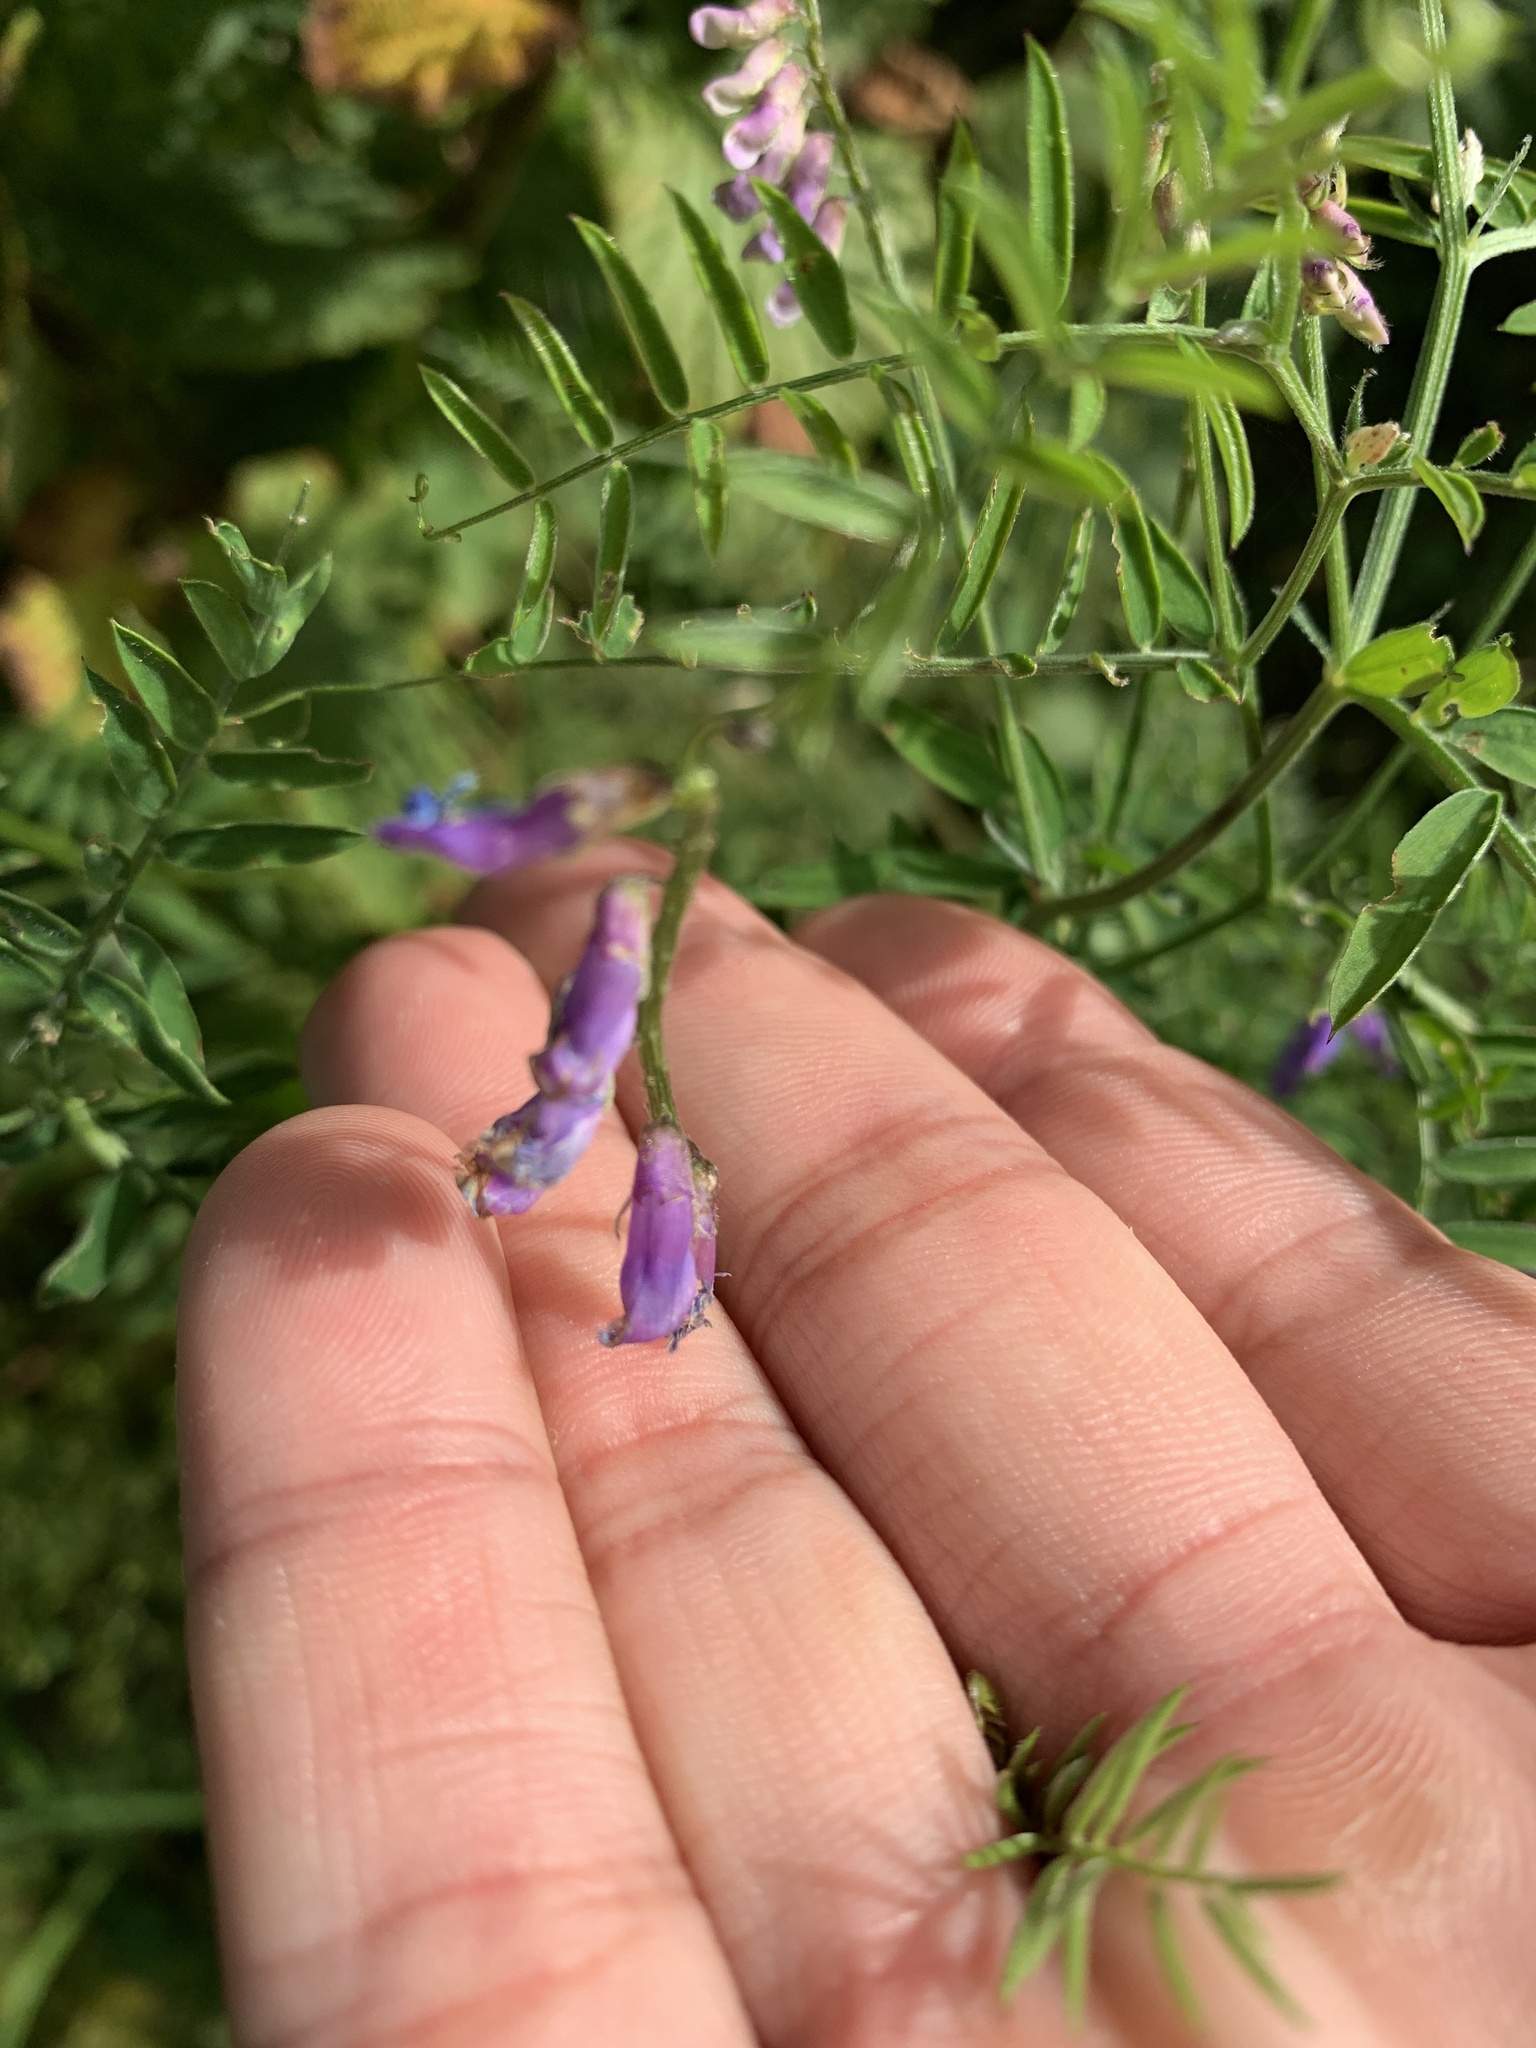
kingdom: Plantae
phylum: Tracheophyta
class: Magnoliopsida
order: Fabales
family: Fabaceae
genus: Vicia
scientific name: Vicia cracca
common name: Bird vetch
